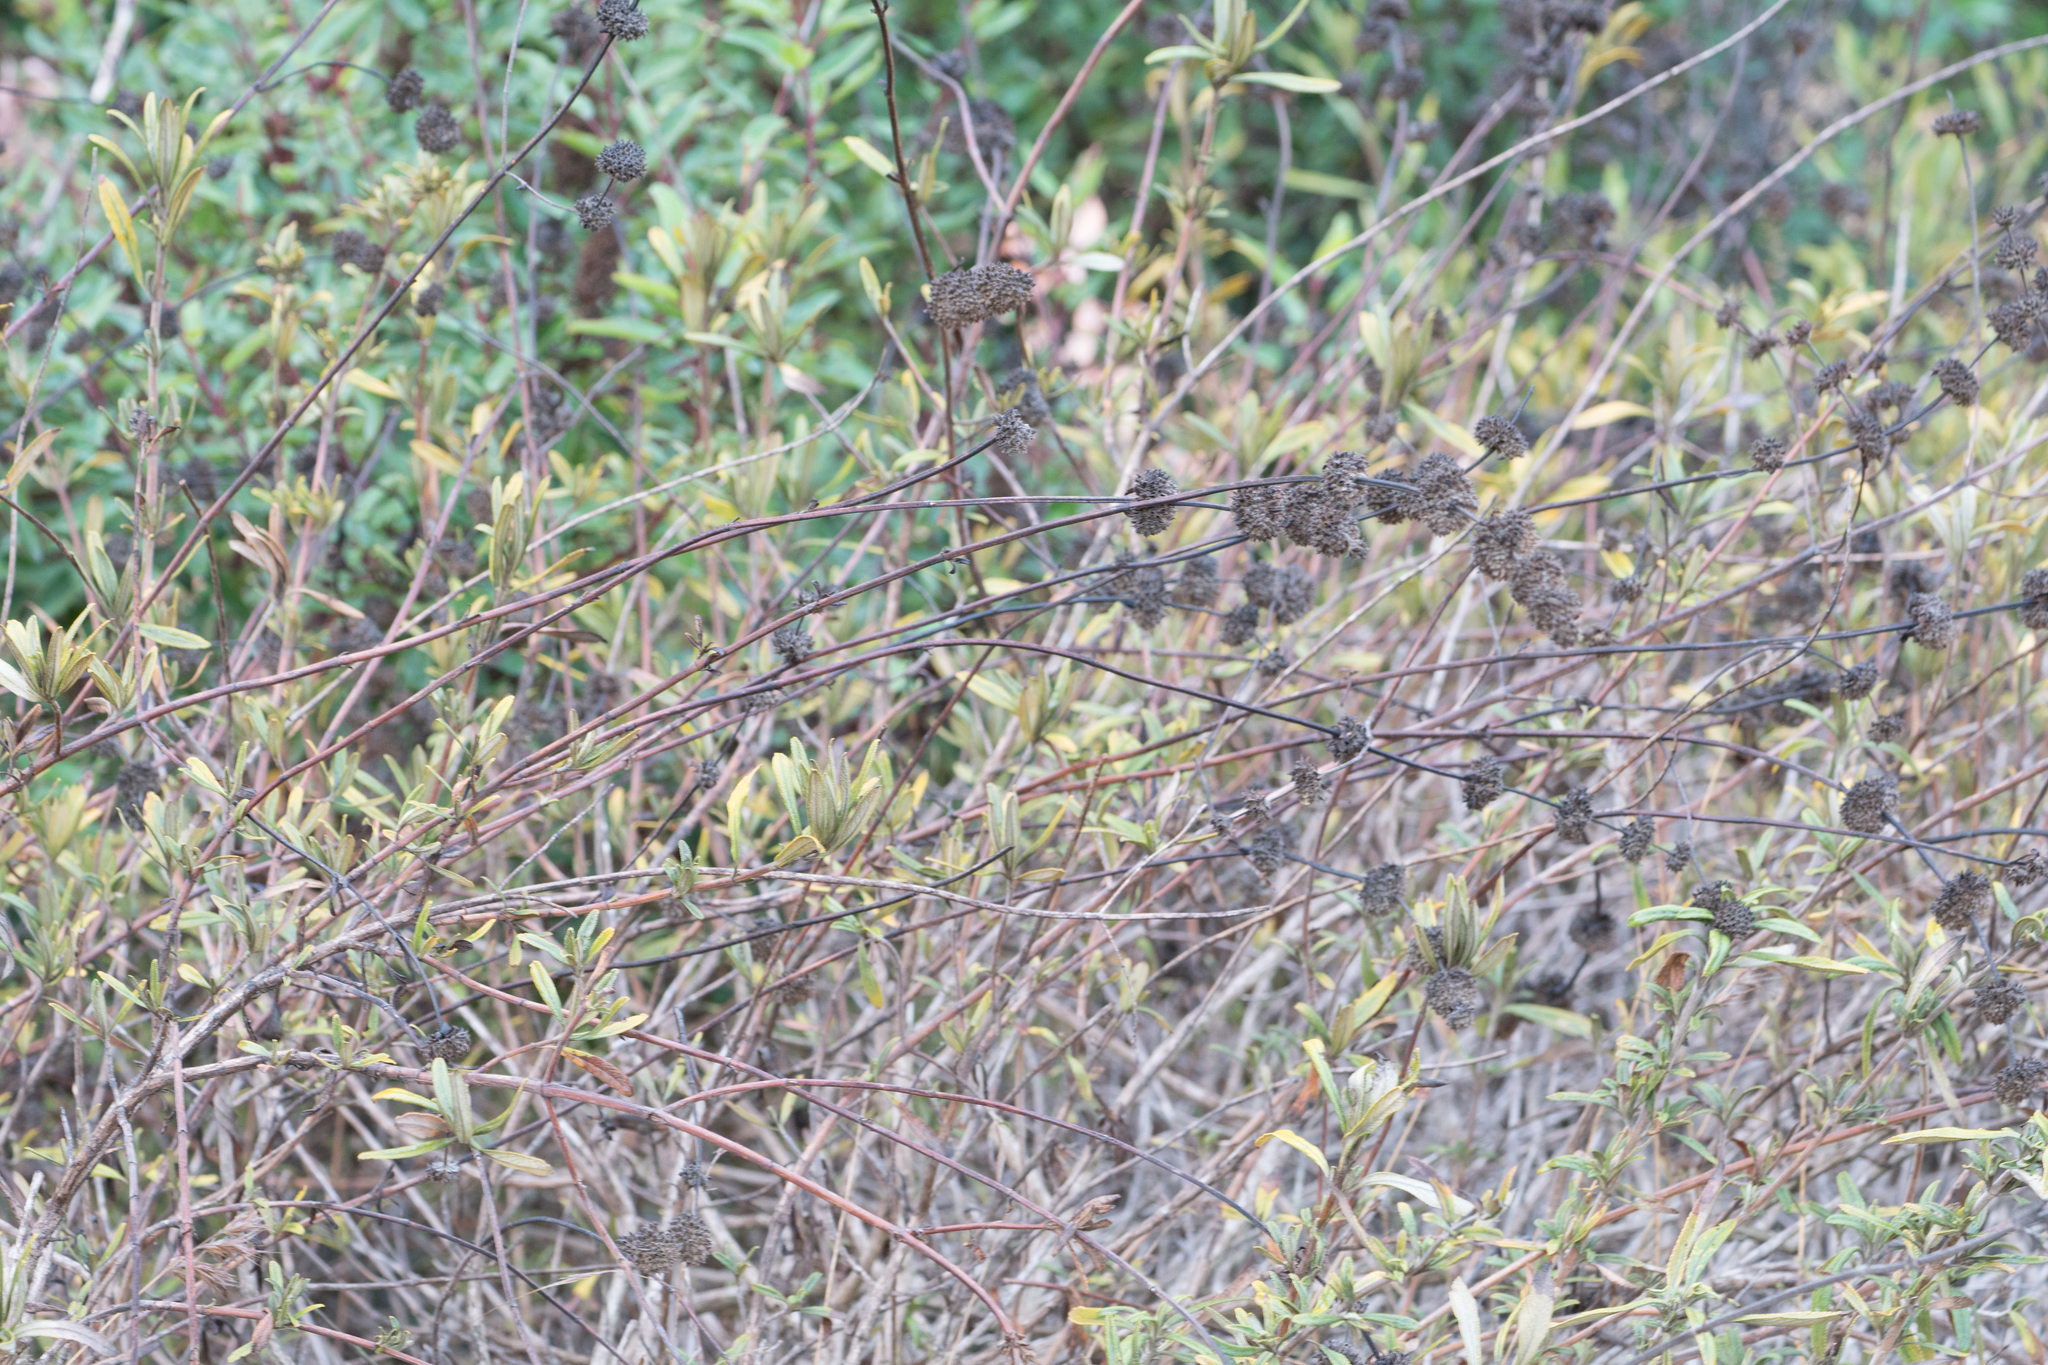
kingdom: Plantae
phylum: Tracheophyta
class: Magnoliopsida
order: Lamiales
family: Lamiaceae
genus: Salvia
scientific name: Salvia mellifera
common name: Black sage
